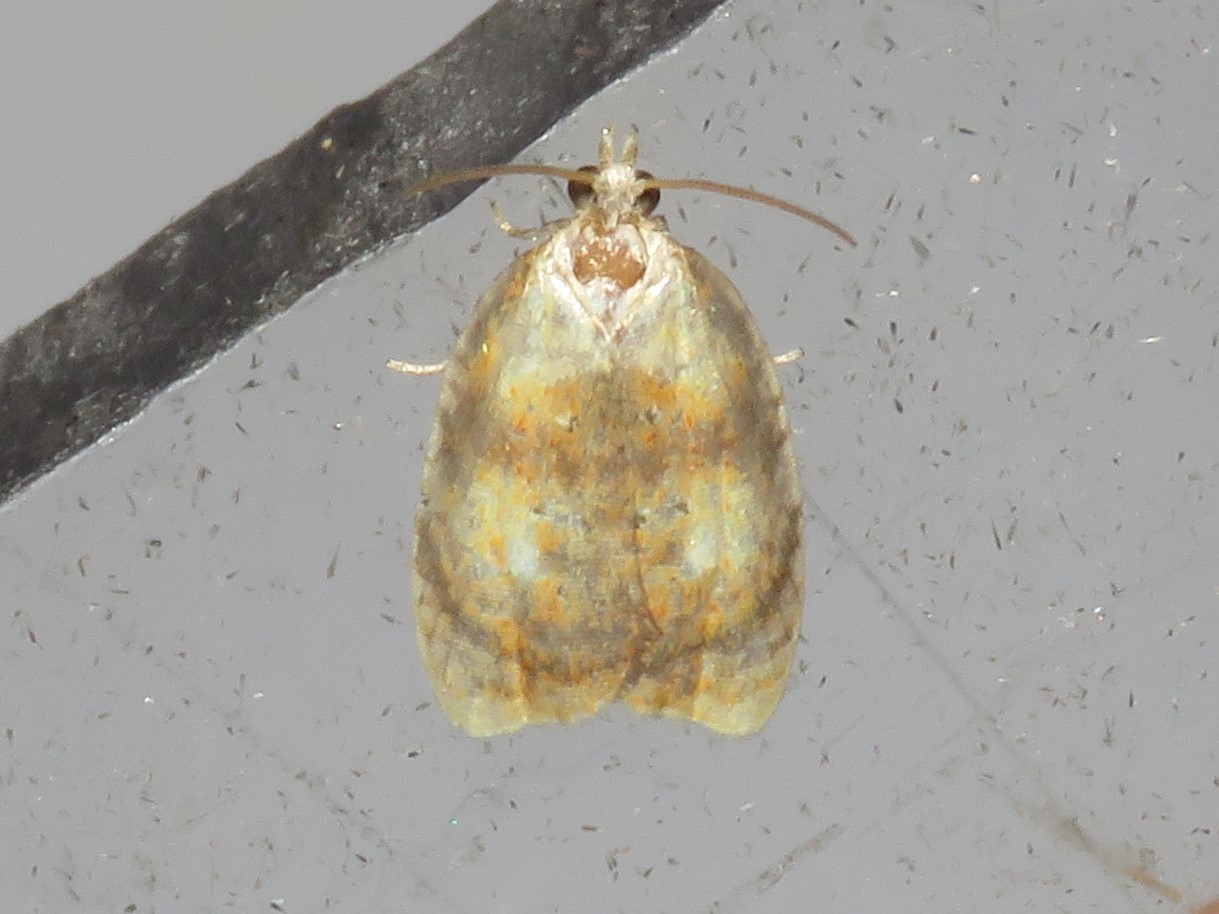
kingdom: Animalia
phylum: Arthropoda
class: Insecta
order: Lepidoptera
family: Tortricidae
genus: Acleris
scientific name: Acleris curvalana
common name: Blueberry leaftier moth
